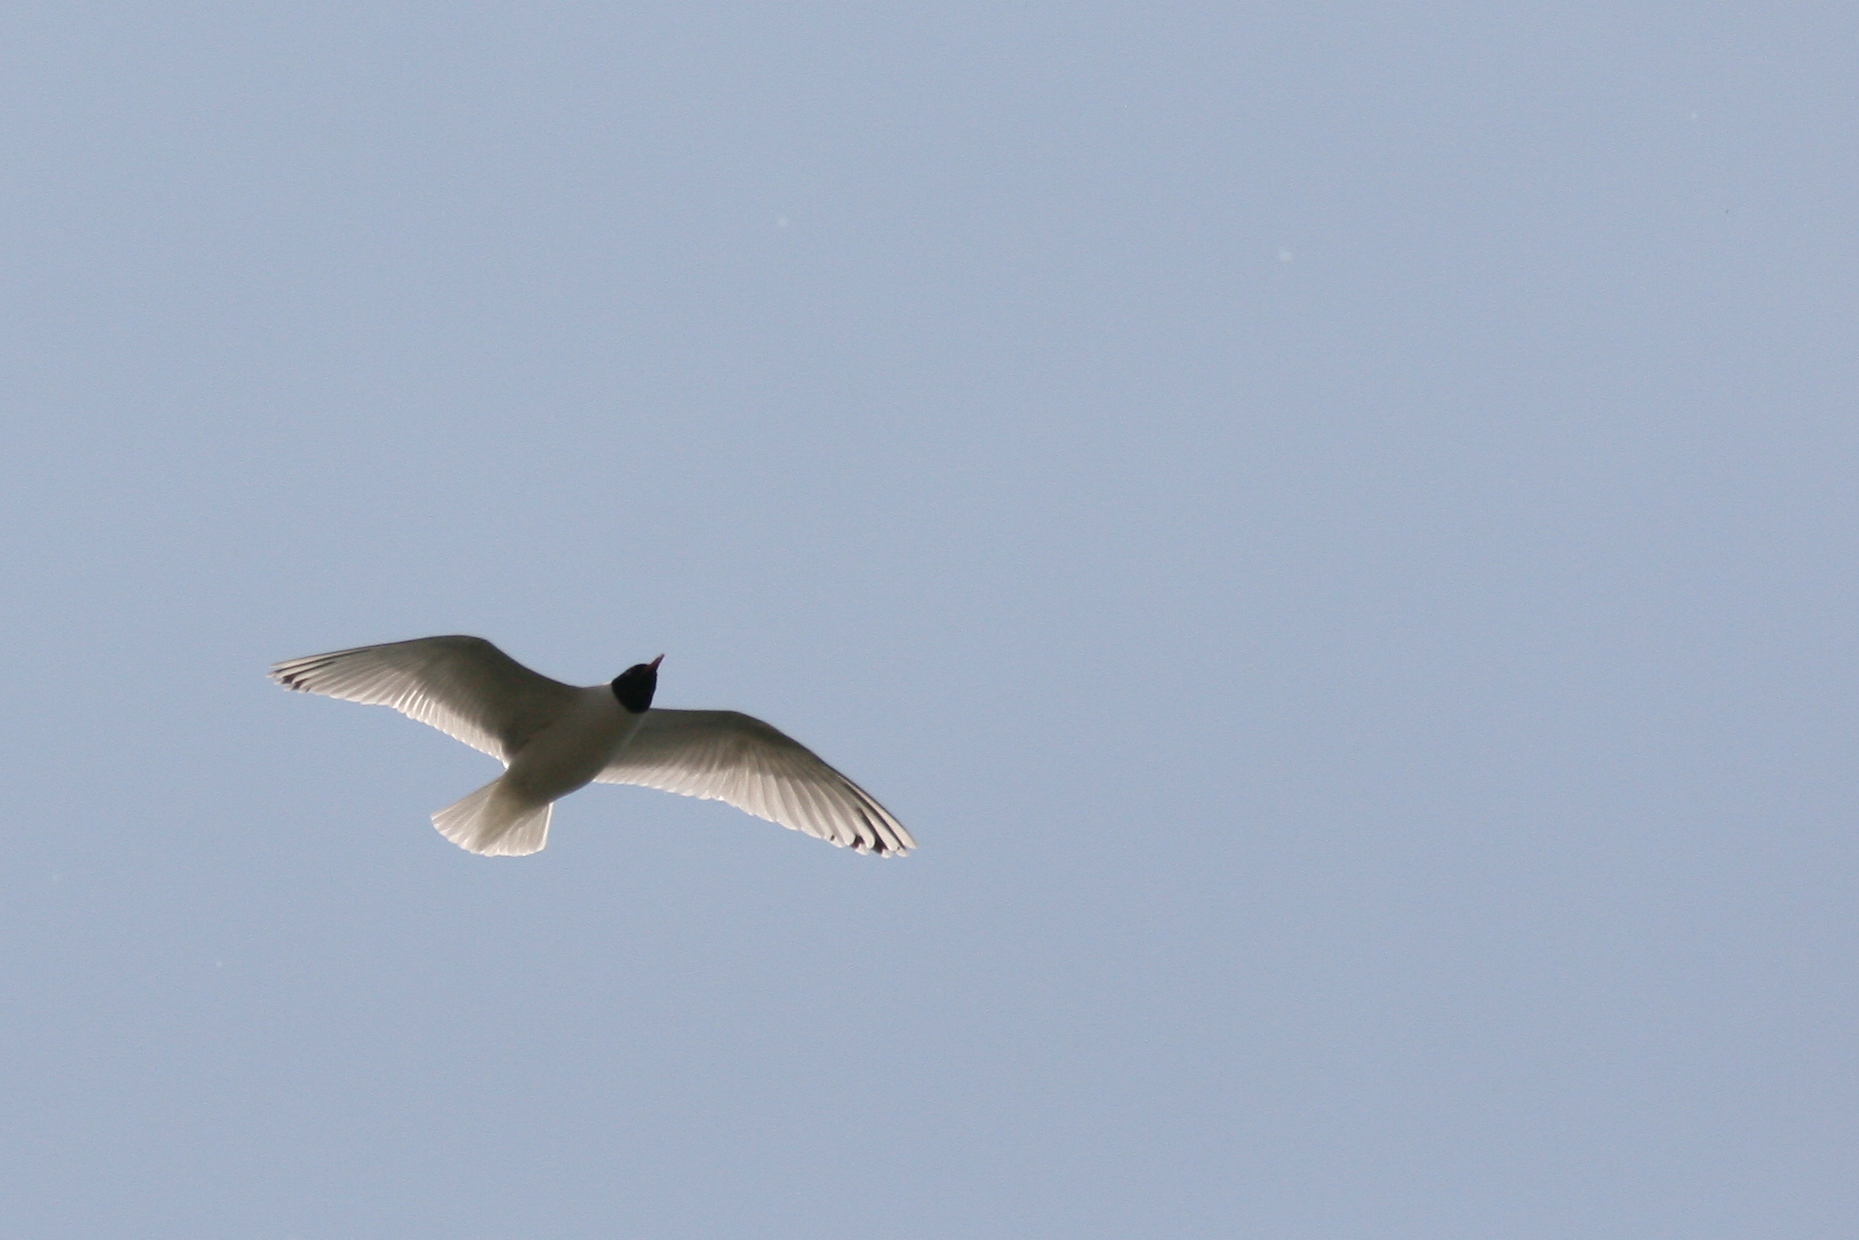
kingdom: Animalia
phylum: Chordata
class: Aves
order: Charadriiformes
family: Laridae
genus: Ichthyaetus
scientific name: Ichthyaetus melanocephalus
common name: Mediterranean gull
